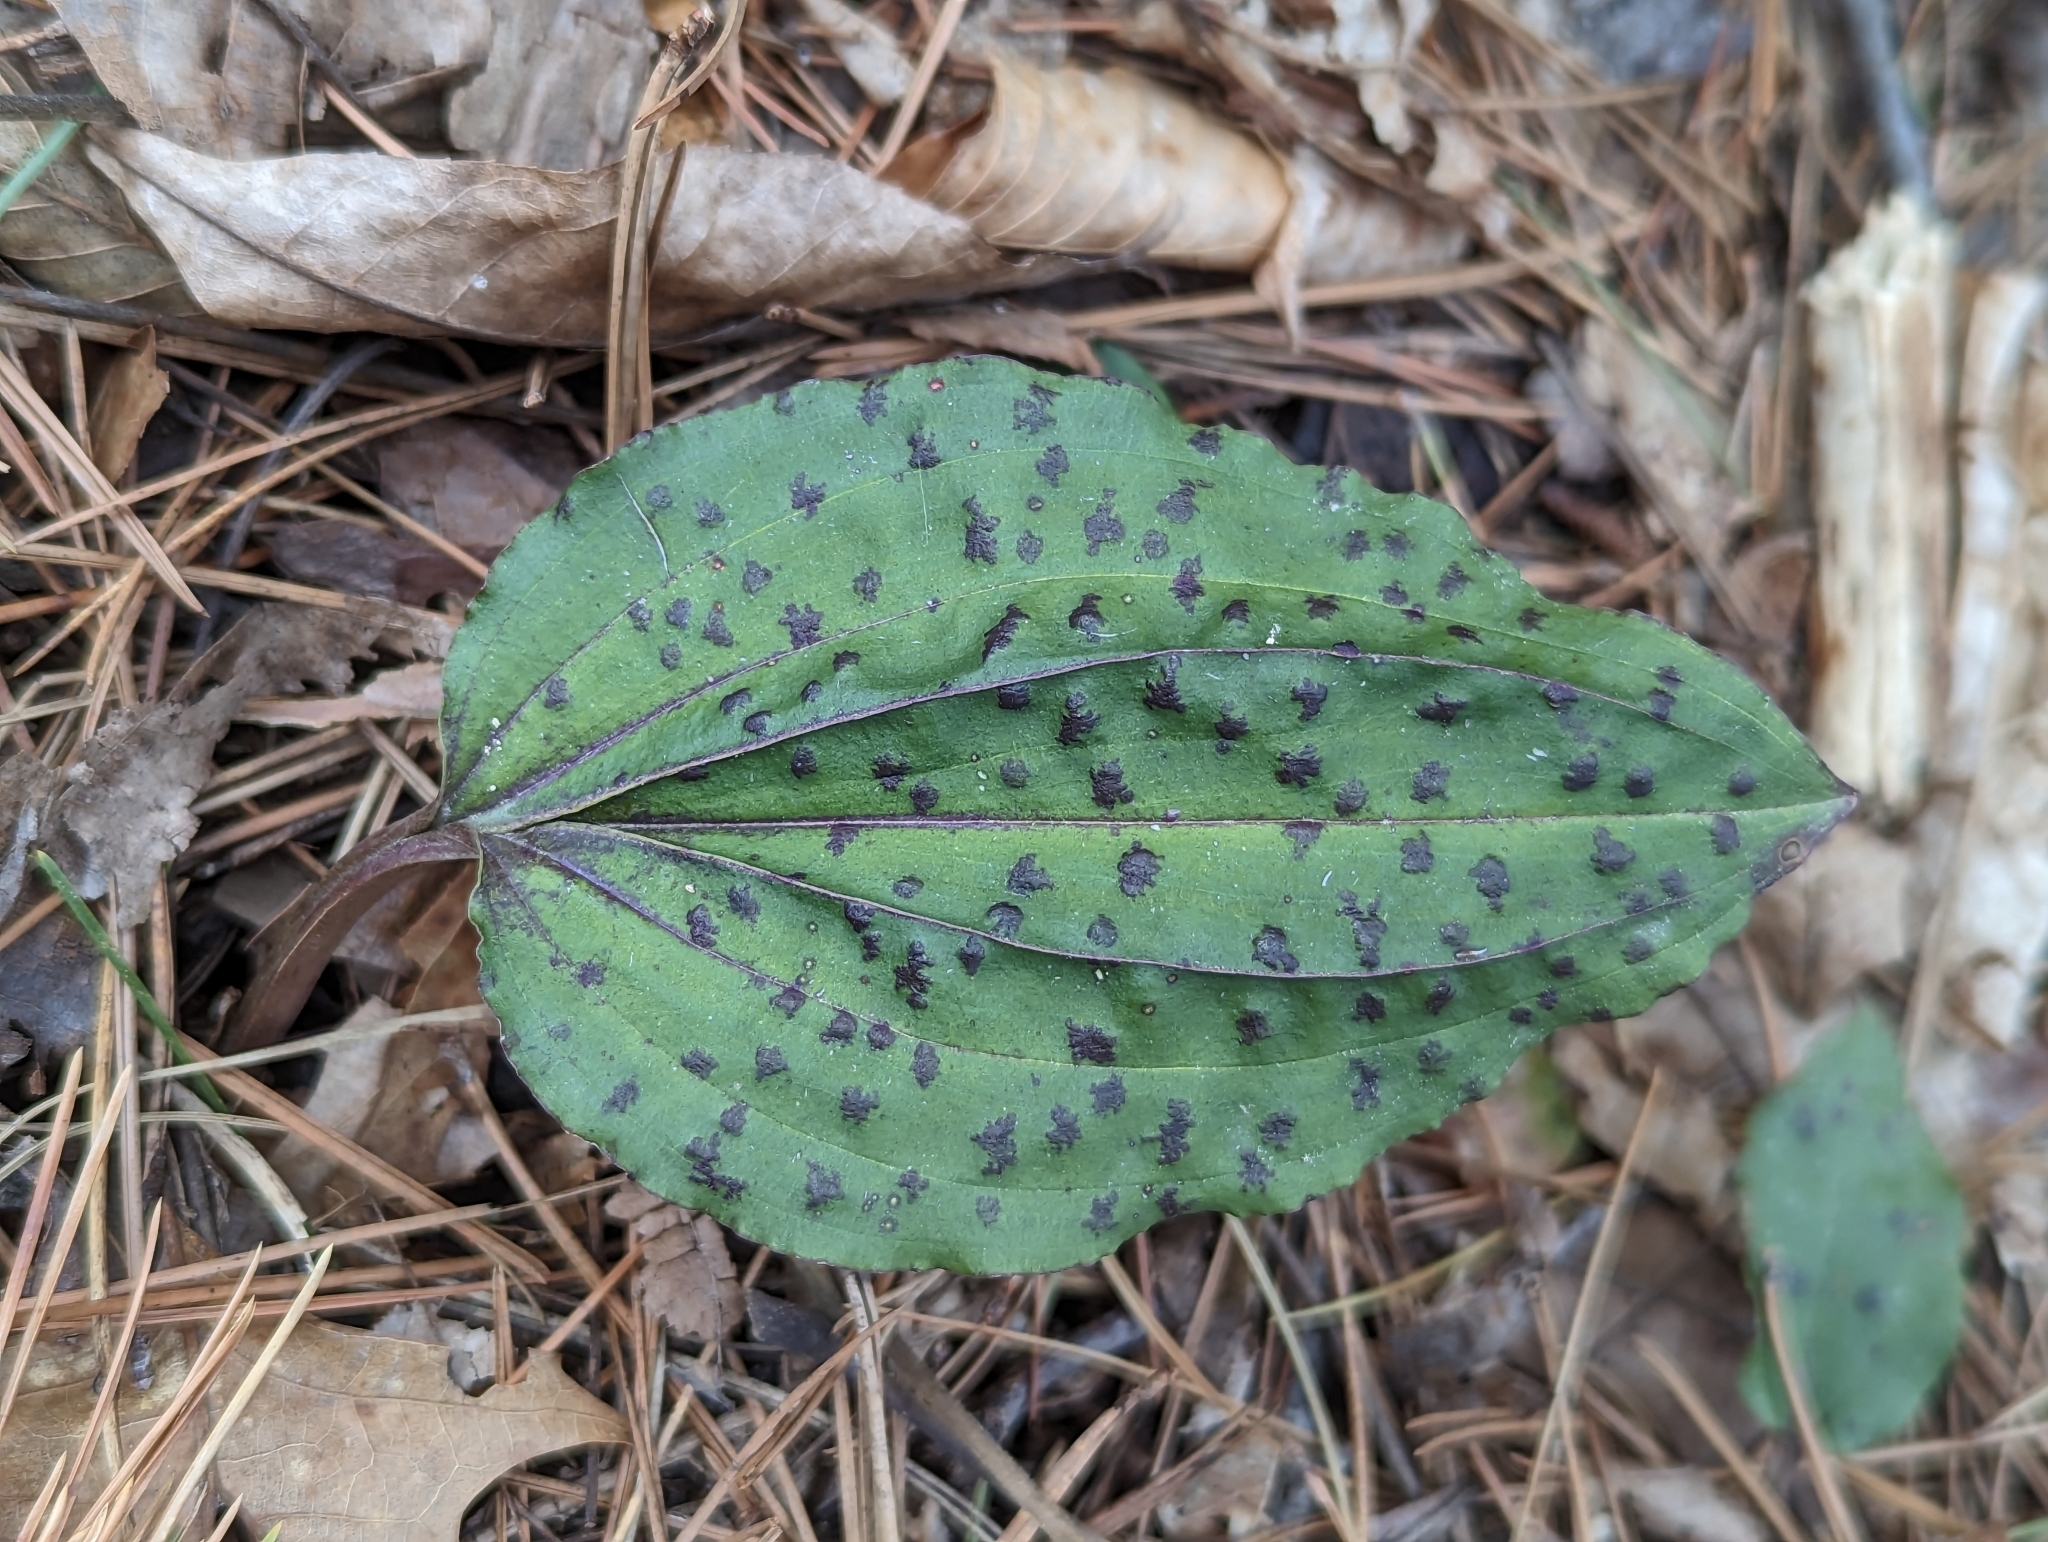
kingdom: Plantae
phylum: Tracheophyta
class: Liliopsida
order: Asparagales
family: Orchidaceae
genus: Tipularia
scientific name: Tipularia discolor
